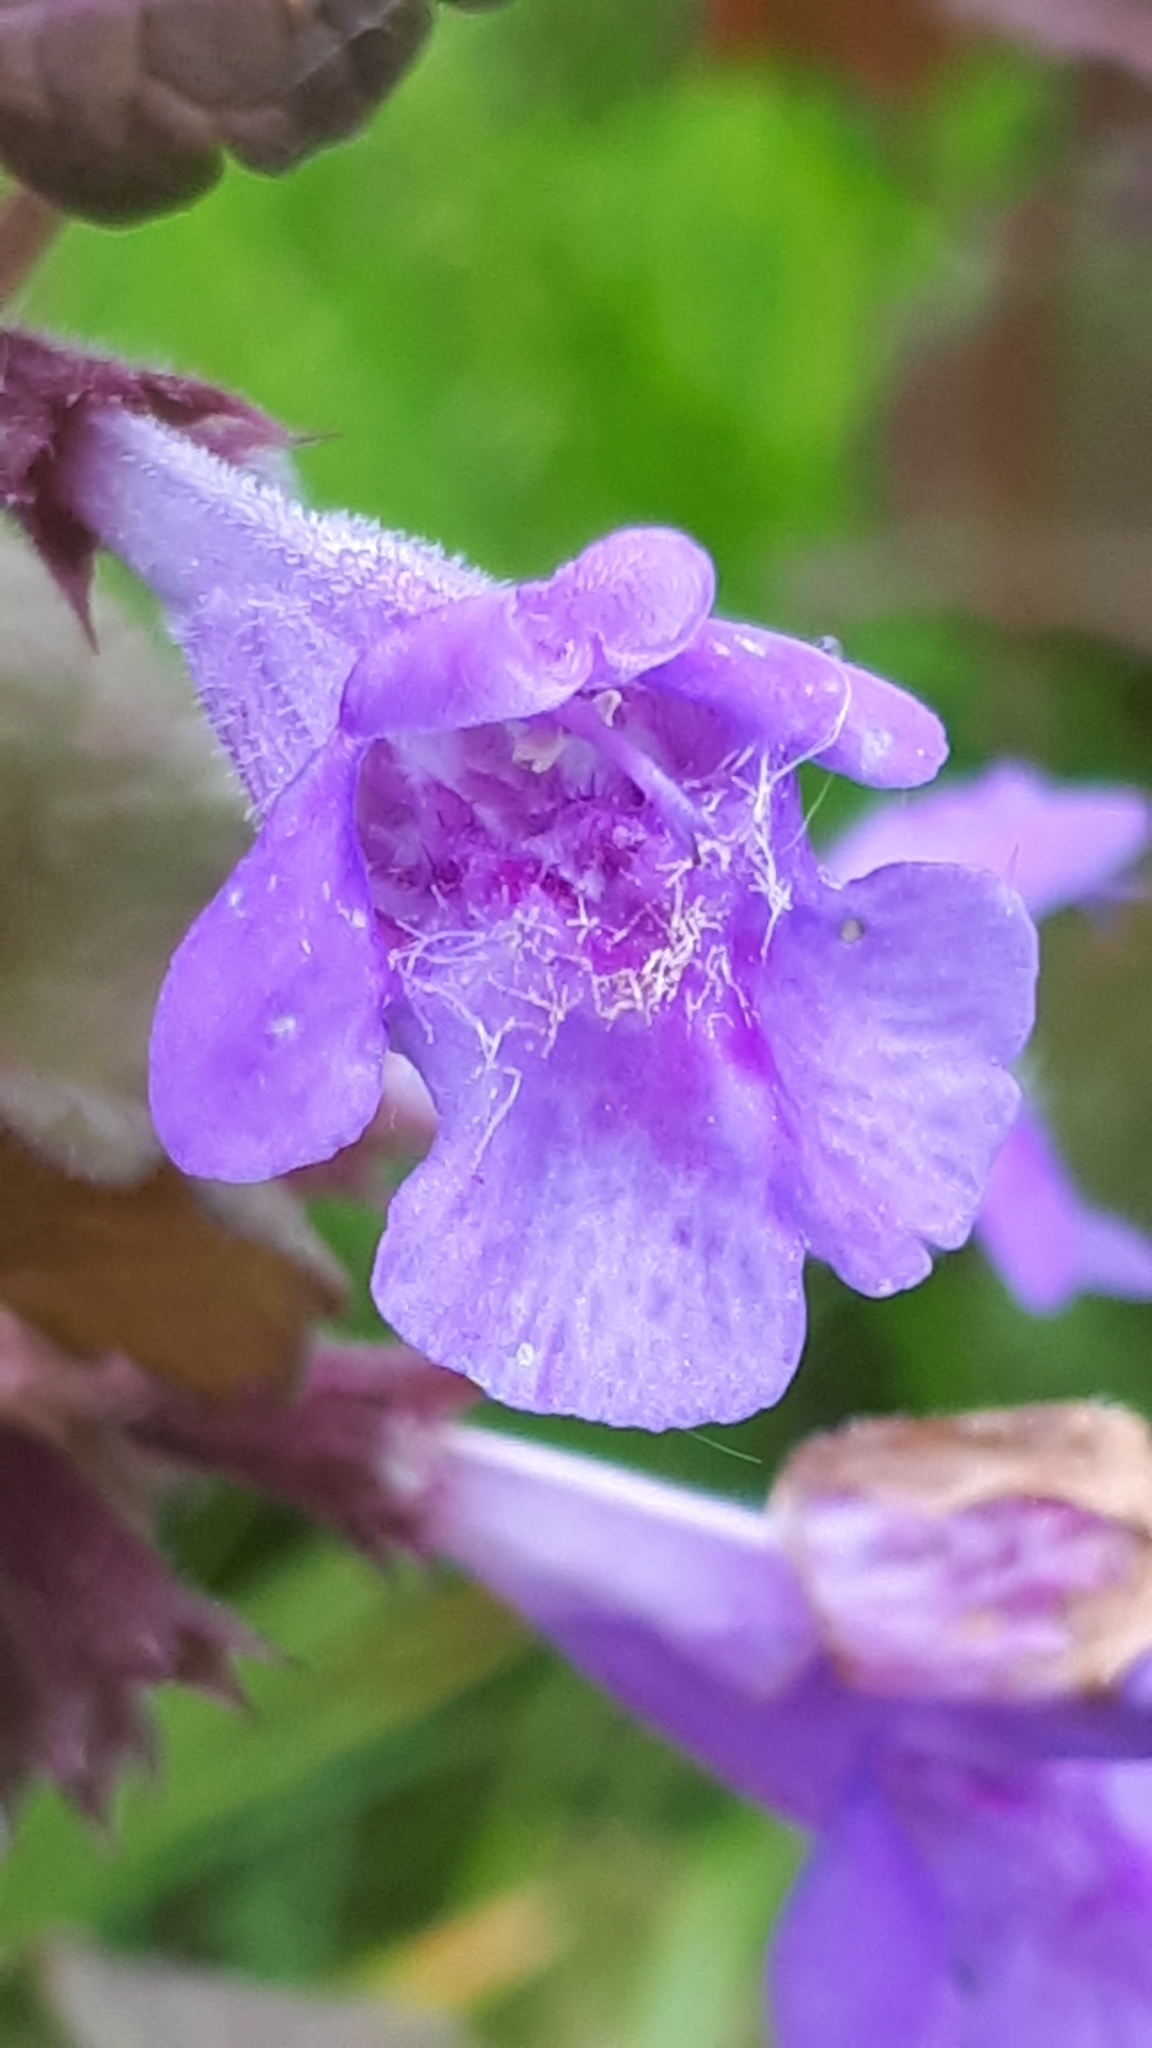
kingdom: Plantae
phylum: Tracheophyta
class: Magnoliopsida
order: Lamiales
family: Lamiaceae
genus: Glechoma
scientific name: Glechoma hederacea
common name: Ground ivy
